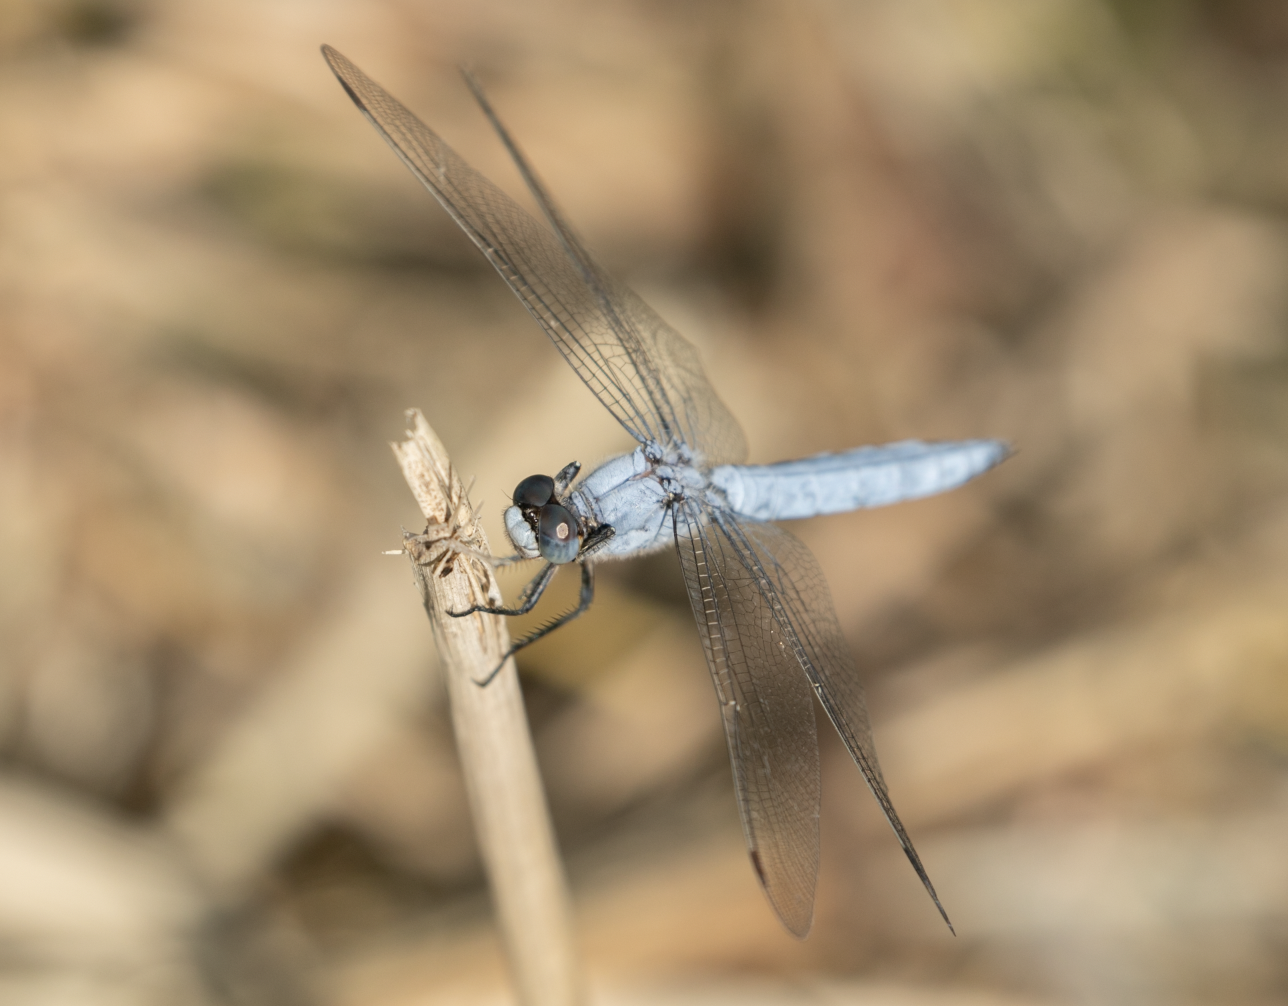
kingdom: Animalia
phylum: Arthropoda
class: Insecta
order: Odonata
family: Libellulidae
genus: Orthetrum
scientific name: Orthetrum brunneum
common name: Southern skimmer
